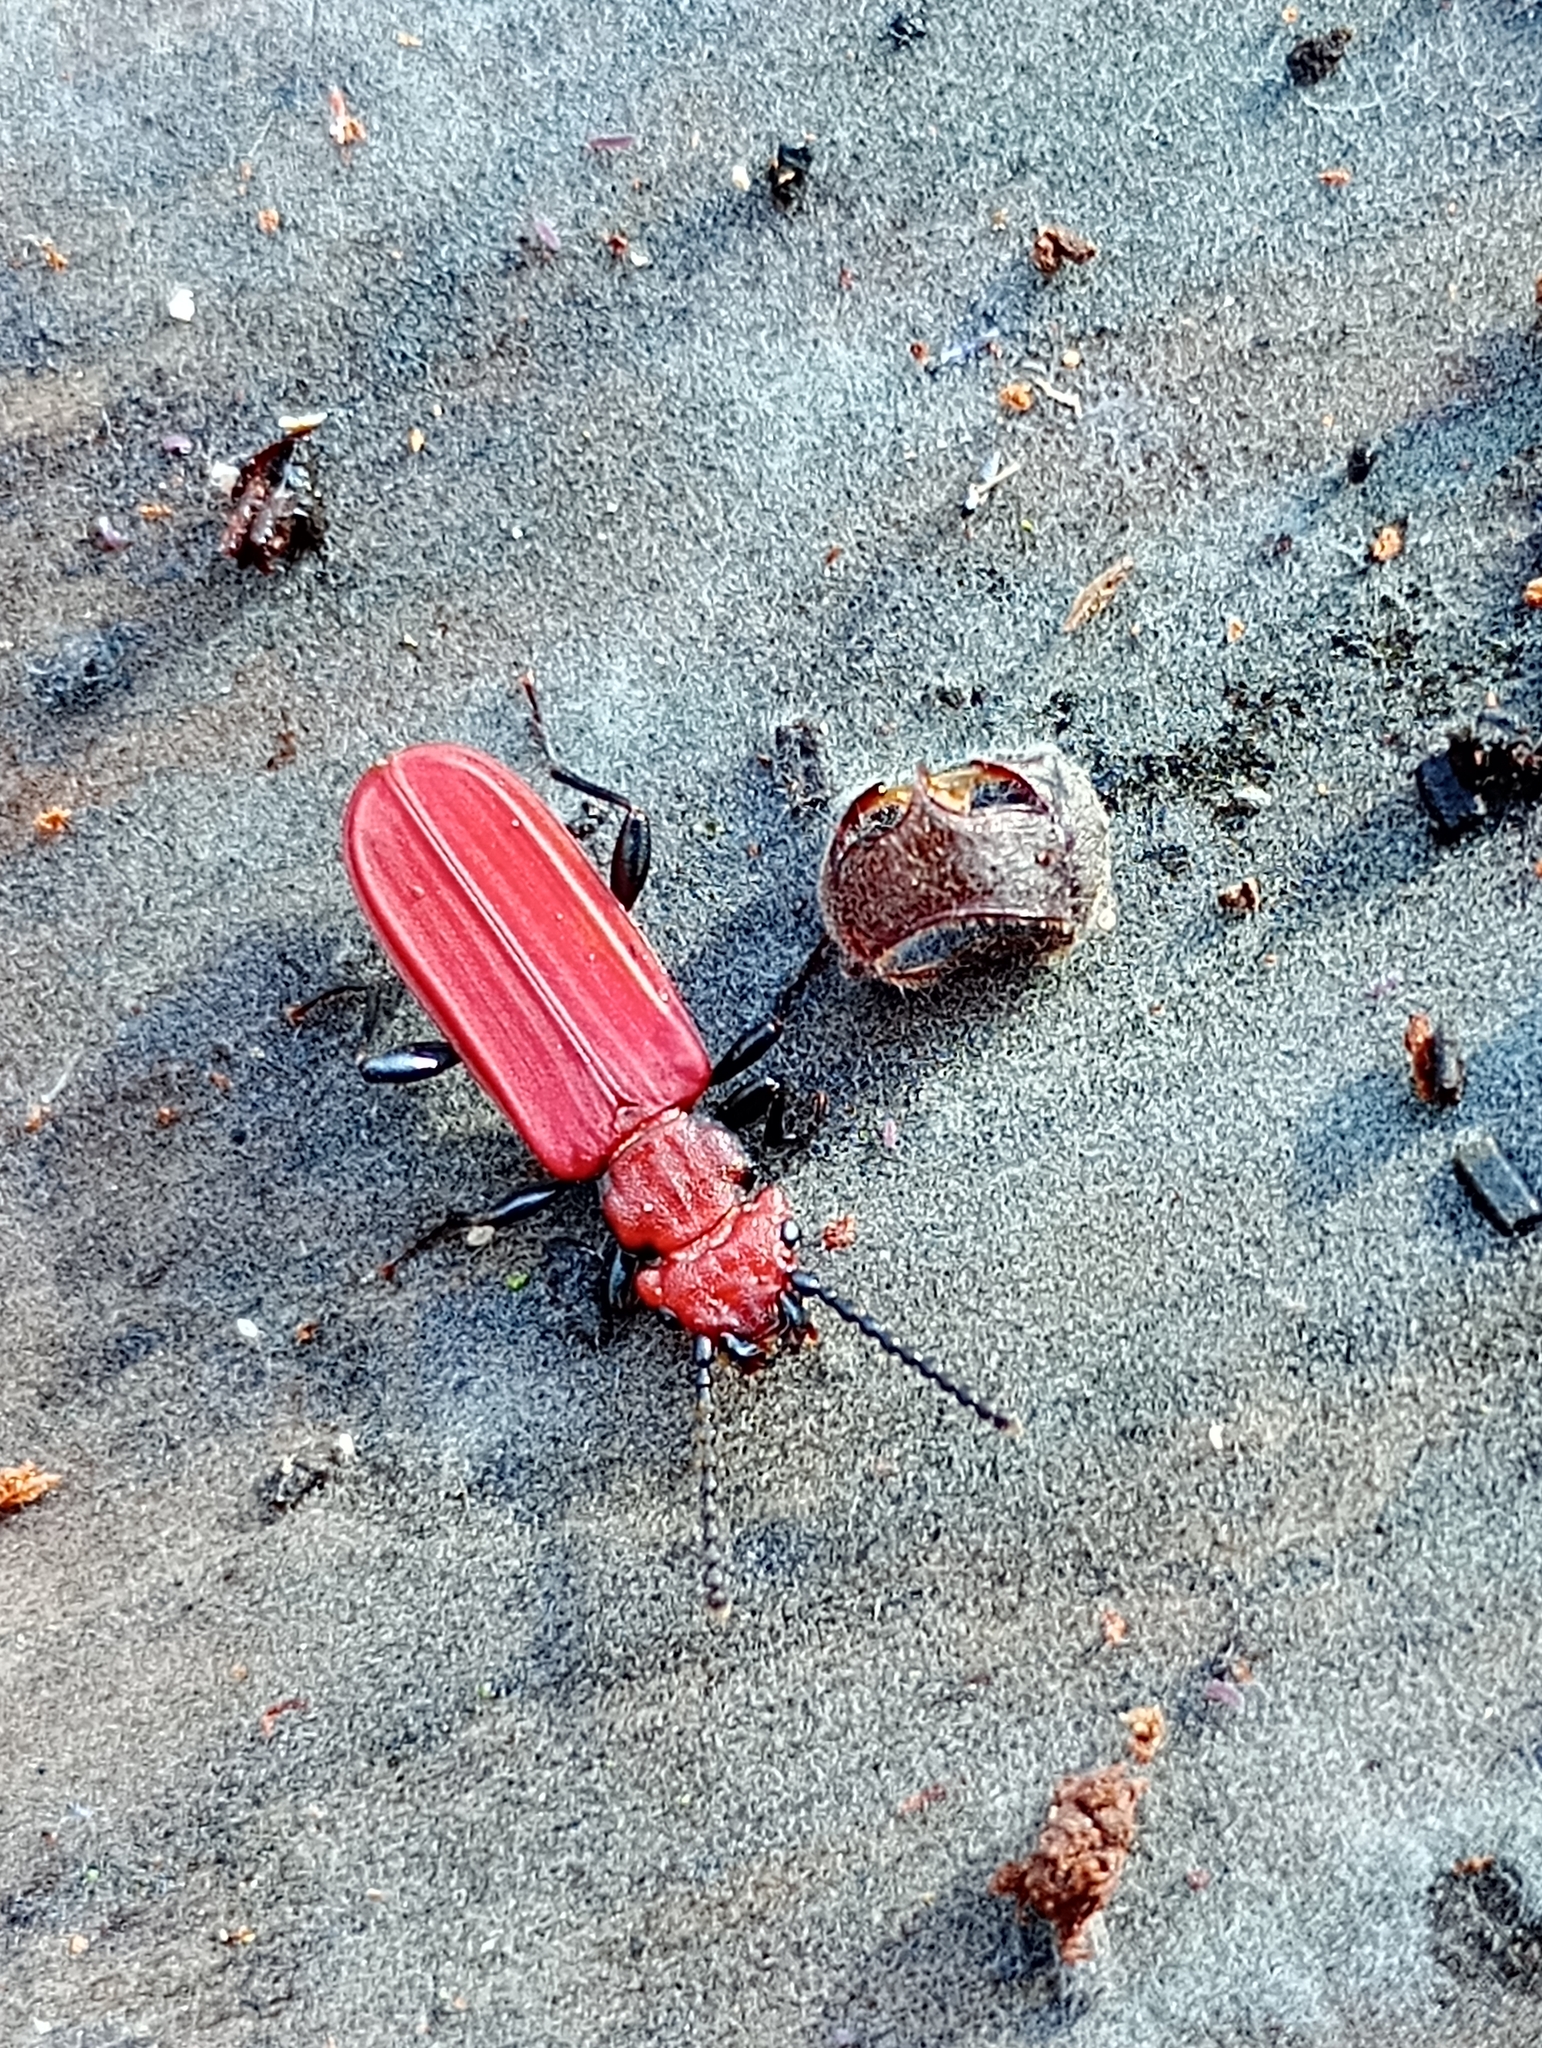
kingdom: Animalia
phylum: Arthropoda
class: Insecta
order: Coleoptera
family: Cucujidae
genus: Cucujus
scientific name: Cucujus cinnaberinus
